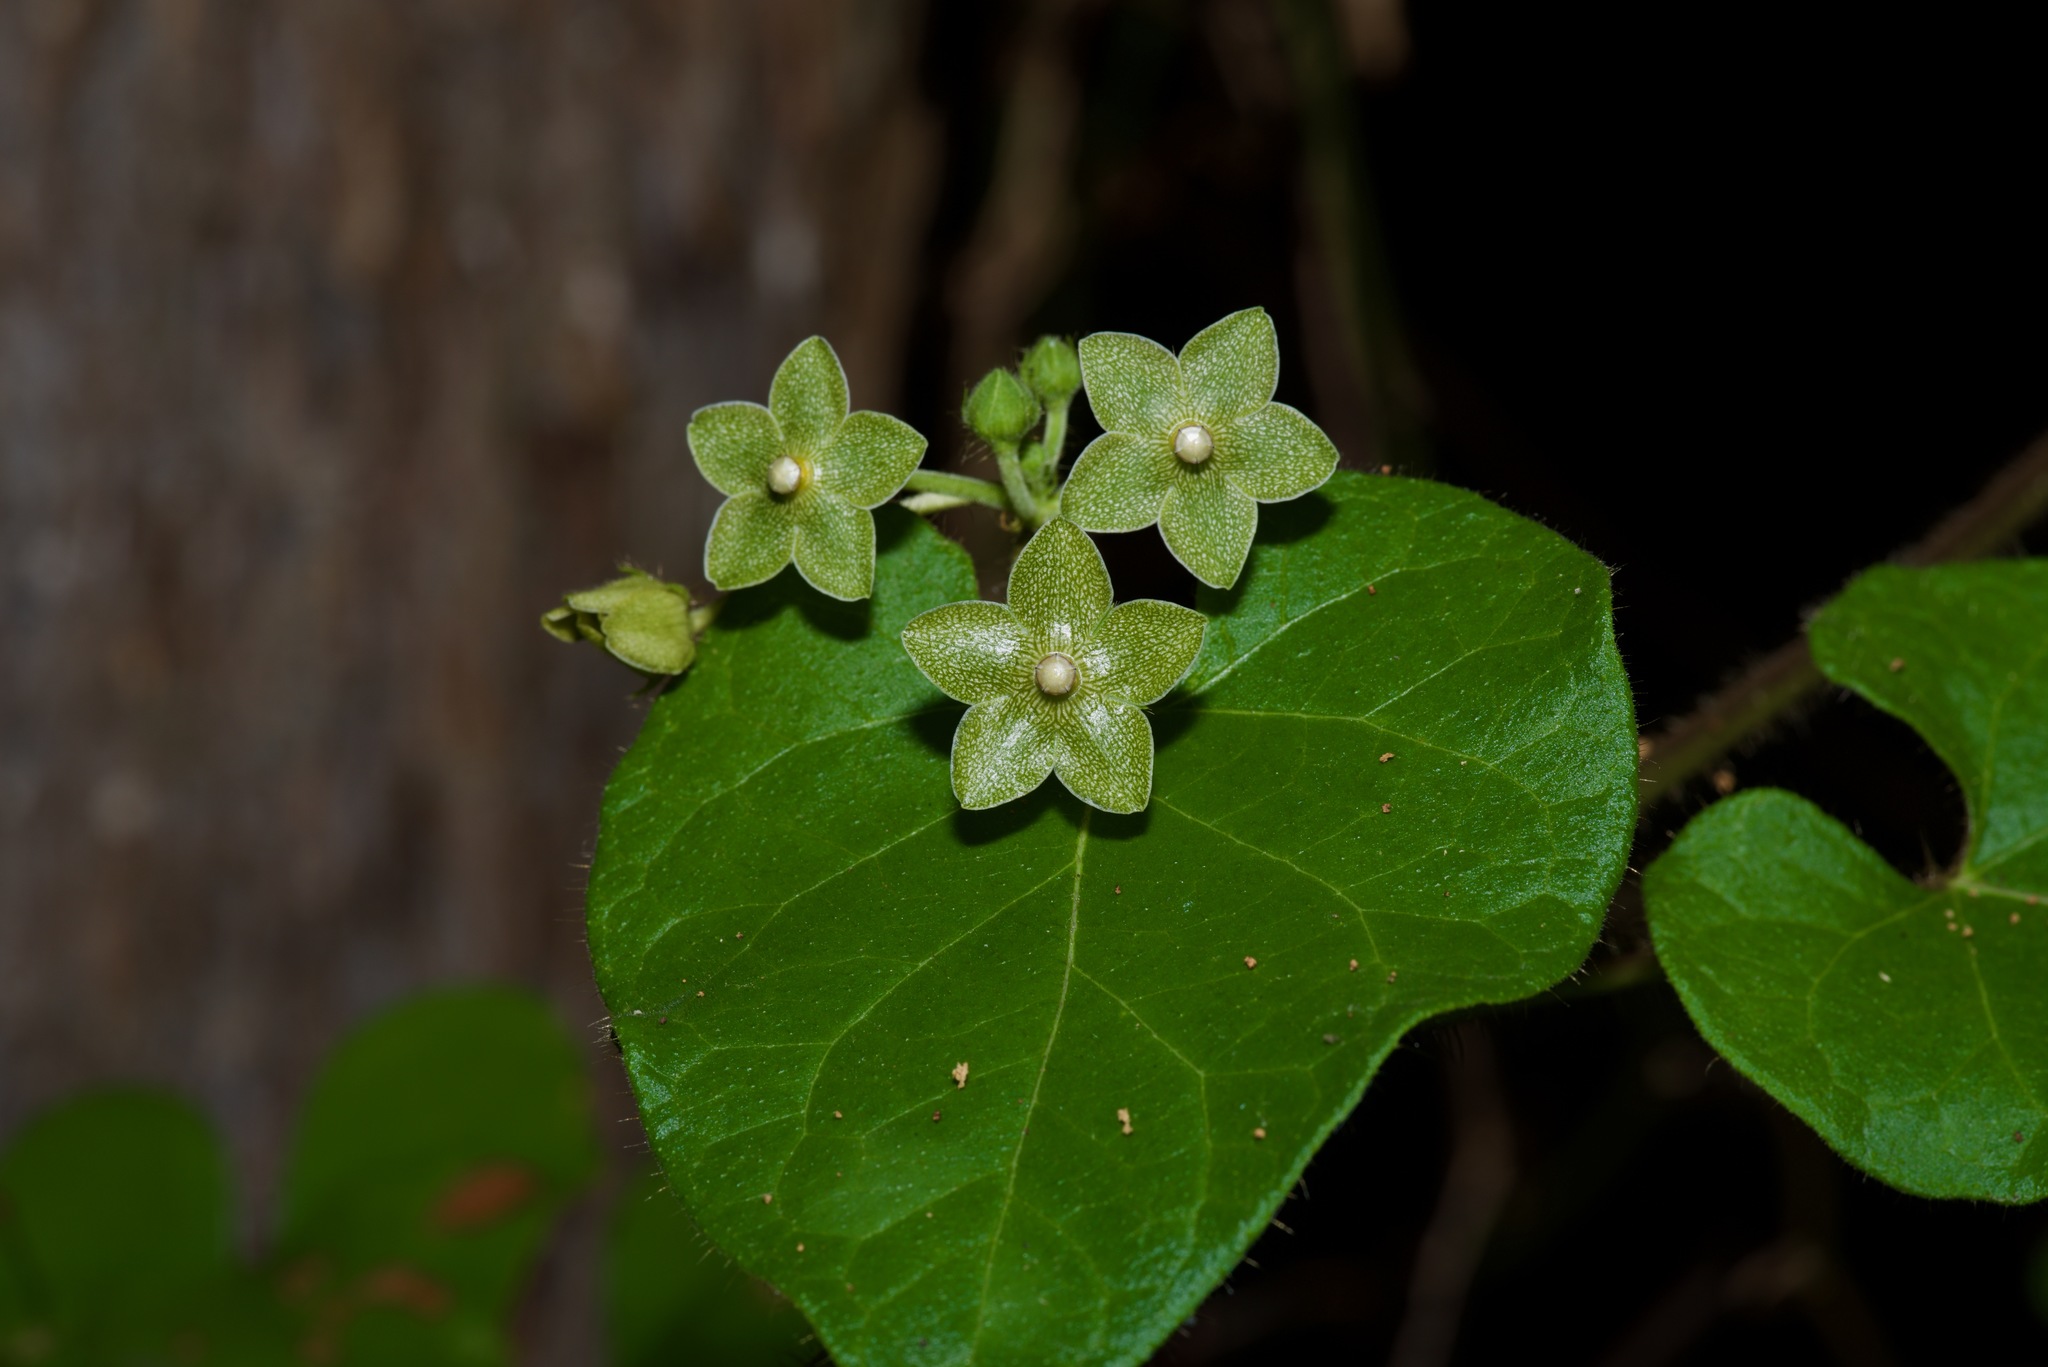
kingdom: Plantae
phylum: Tracheophyta
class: Magnoliopsida
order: Gentianales
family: Apocynaceae
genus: Dictyanthus
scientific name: Dictyanthus reticulatus
